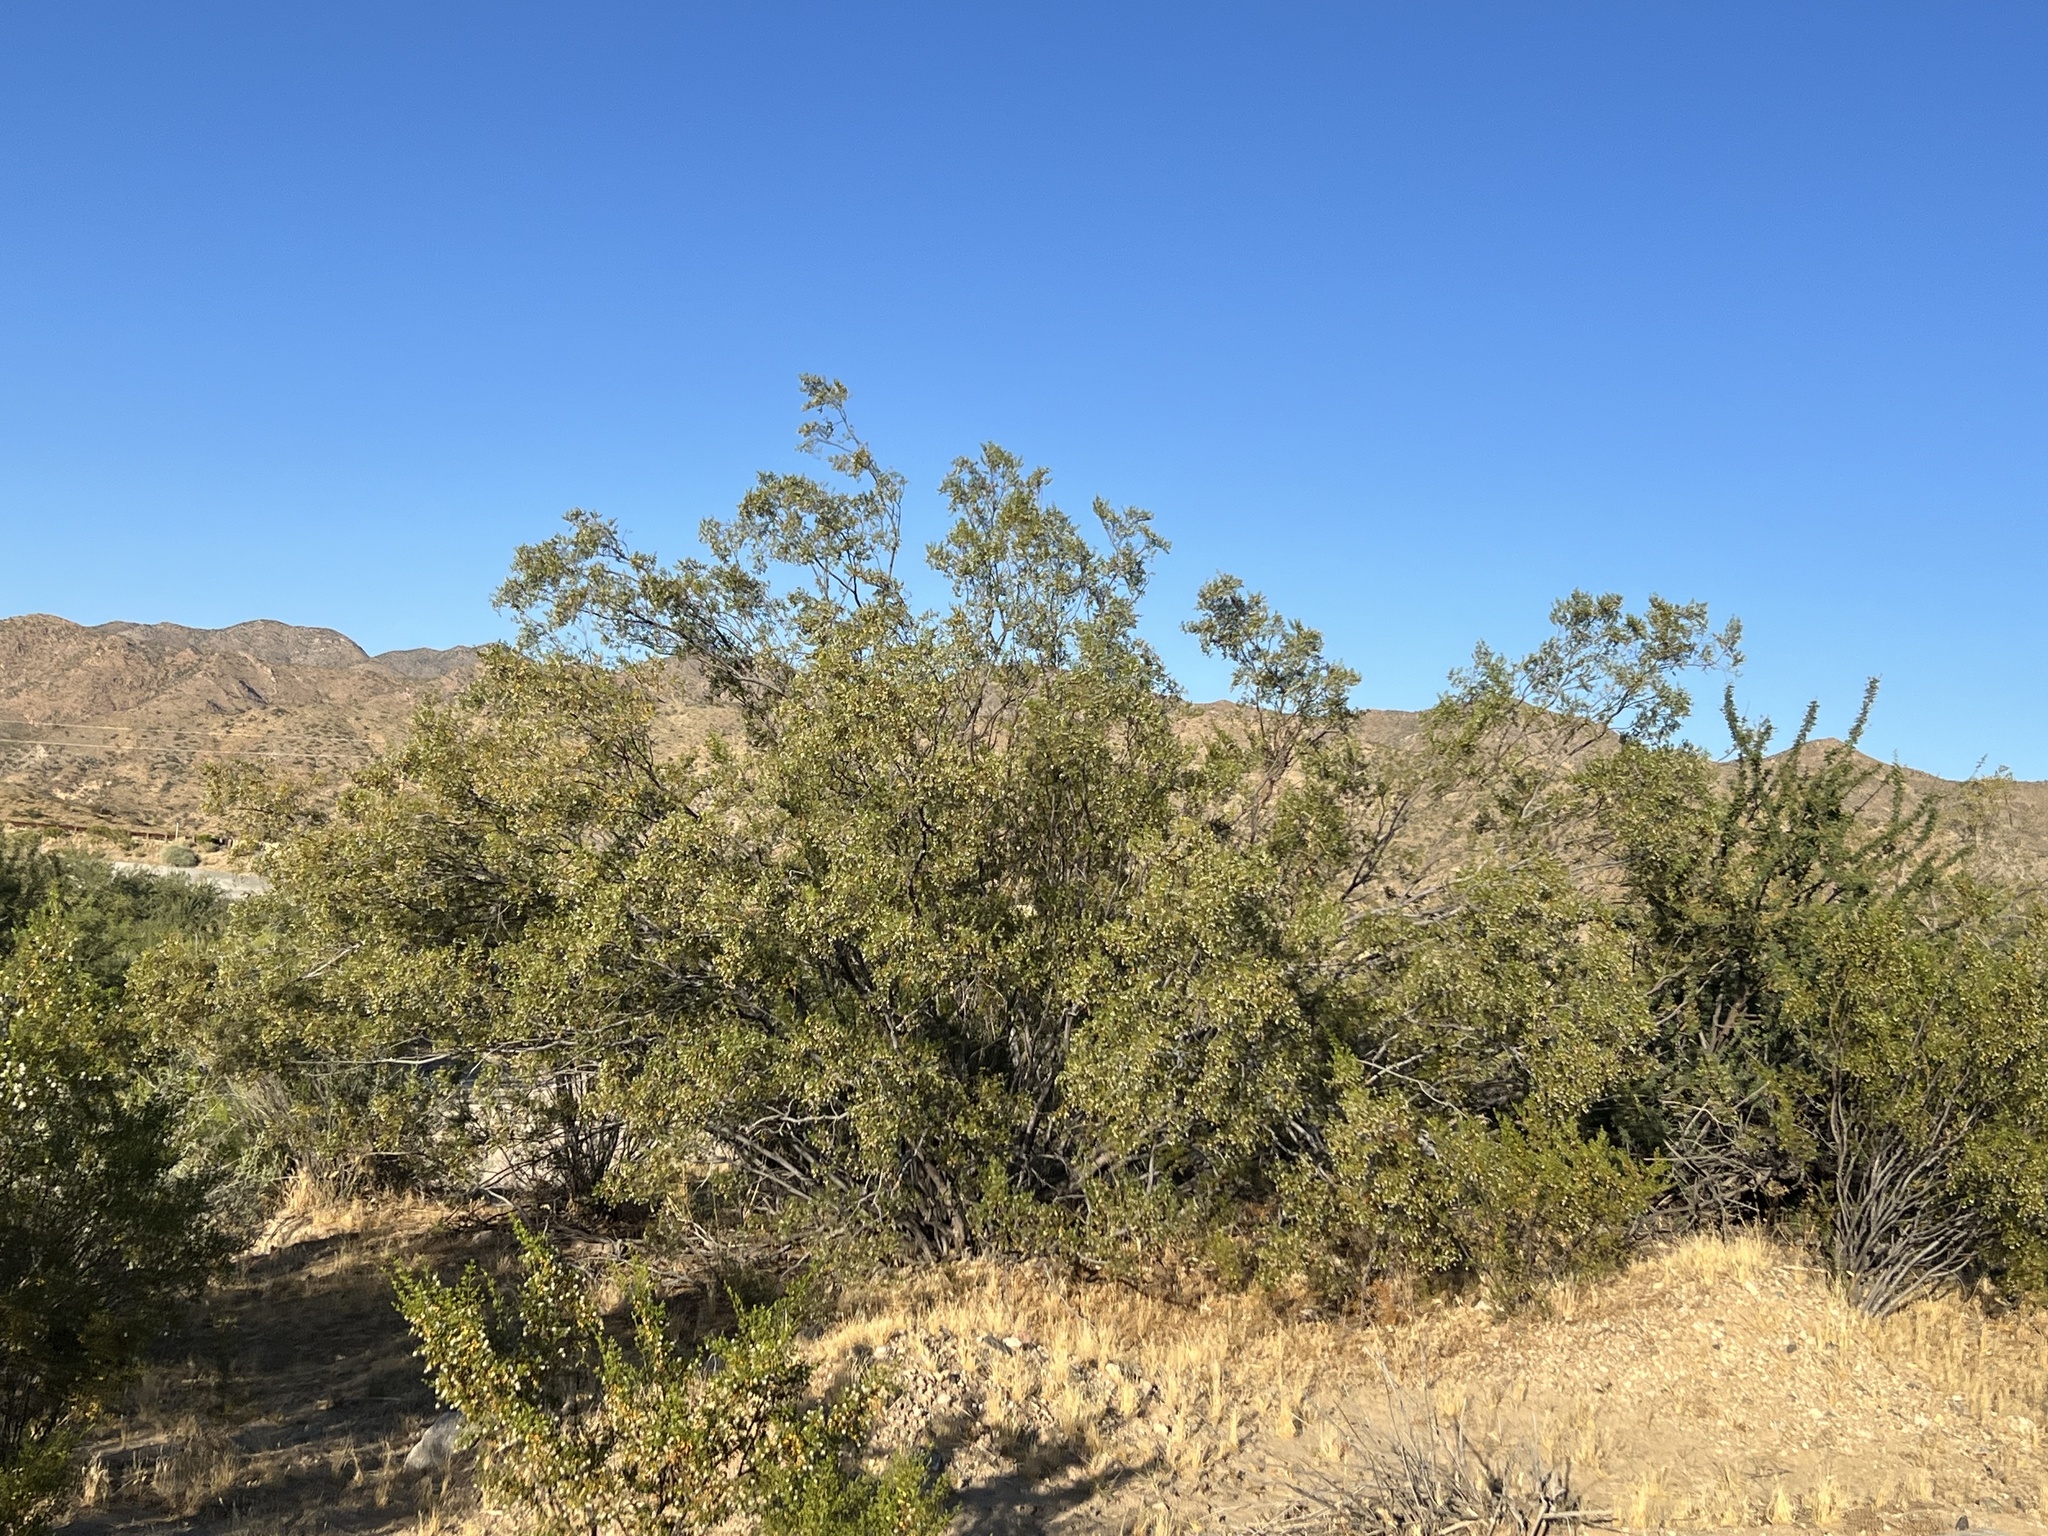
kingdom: Plantae
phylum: Tracheophyta
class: Magnoliopsida
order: Zygophyllales
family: Zygophyllaceae
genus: Larrea
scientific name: Larrea tridentata
